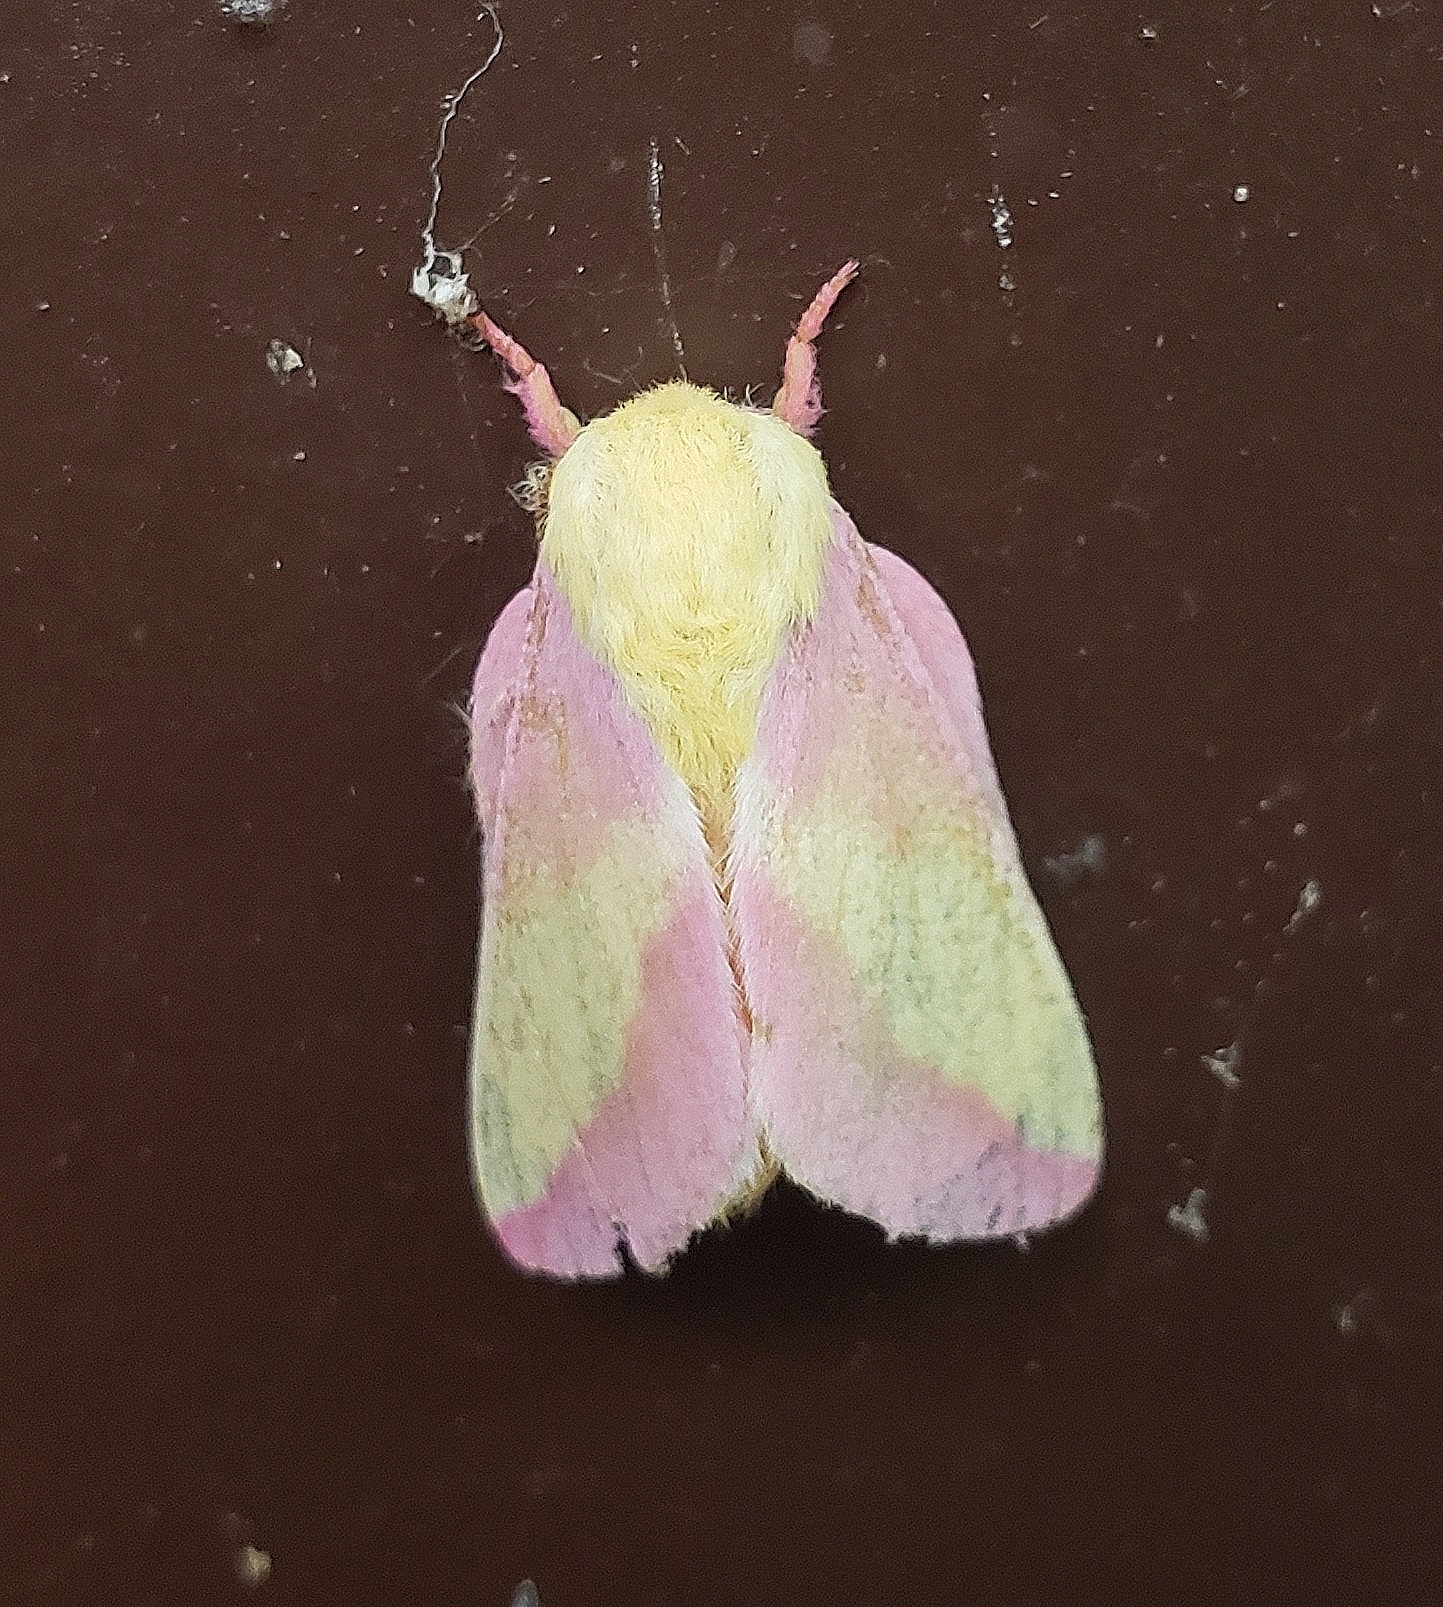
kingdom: Animalia
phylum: Arthropoda
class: Insecta
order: Lepidoptera
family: Saturniidae
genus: Dryocampa
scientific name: Dryocampa rubicunda
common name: Rosy maple moth
